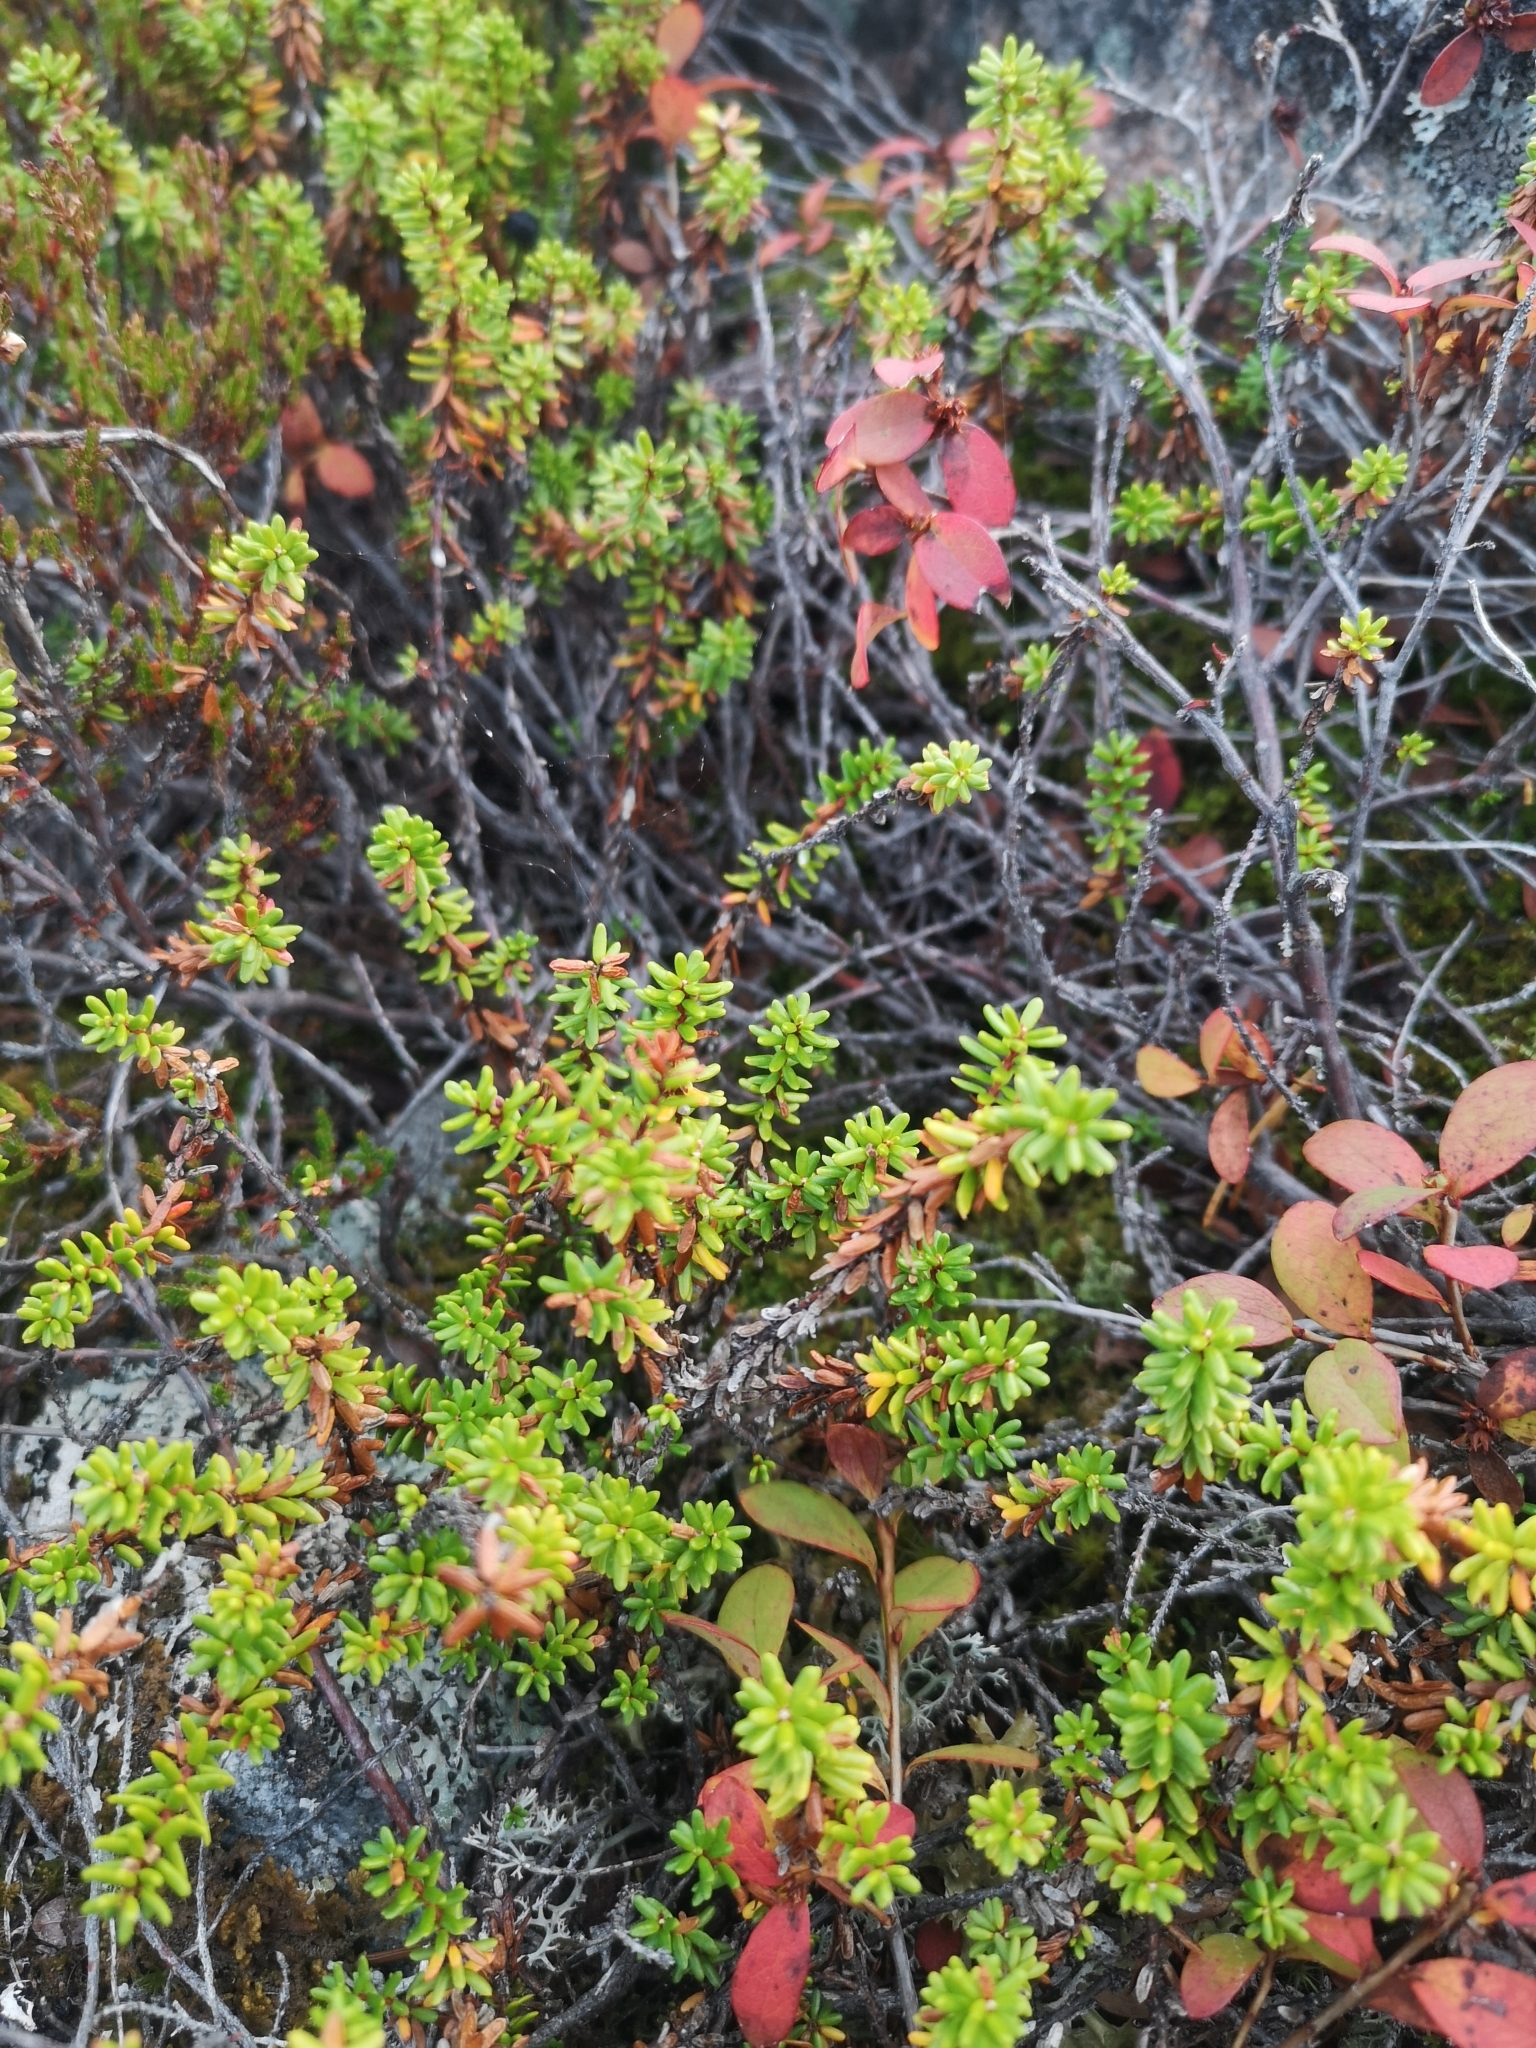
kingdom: Plantae
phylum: Tracheophyta
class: Magnoliopsida
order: Ericales
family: Ericaceae
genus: Empetrum
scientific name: Empetrum nigrum
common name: Black crowberry
